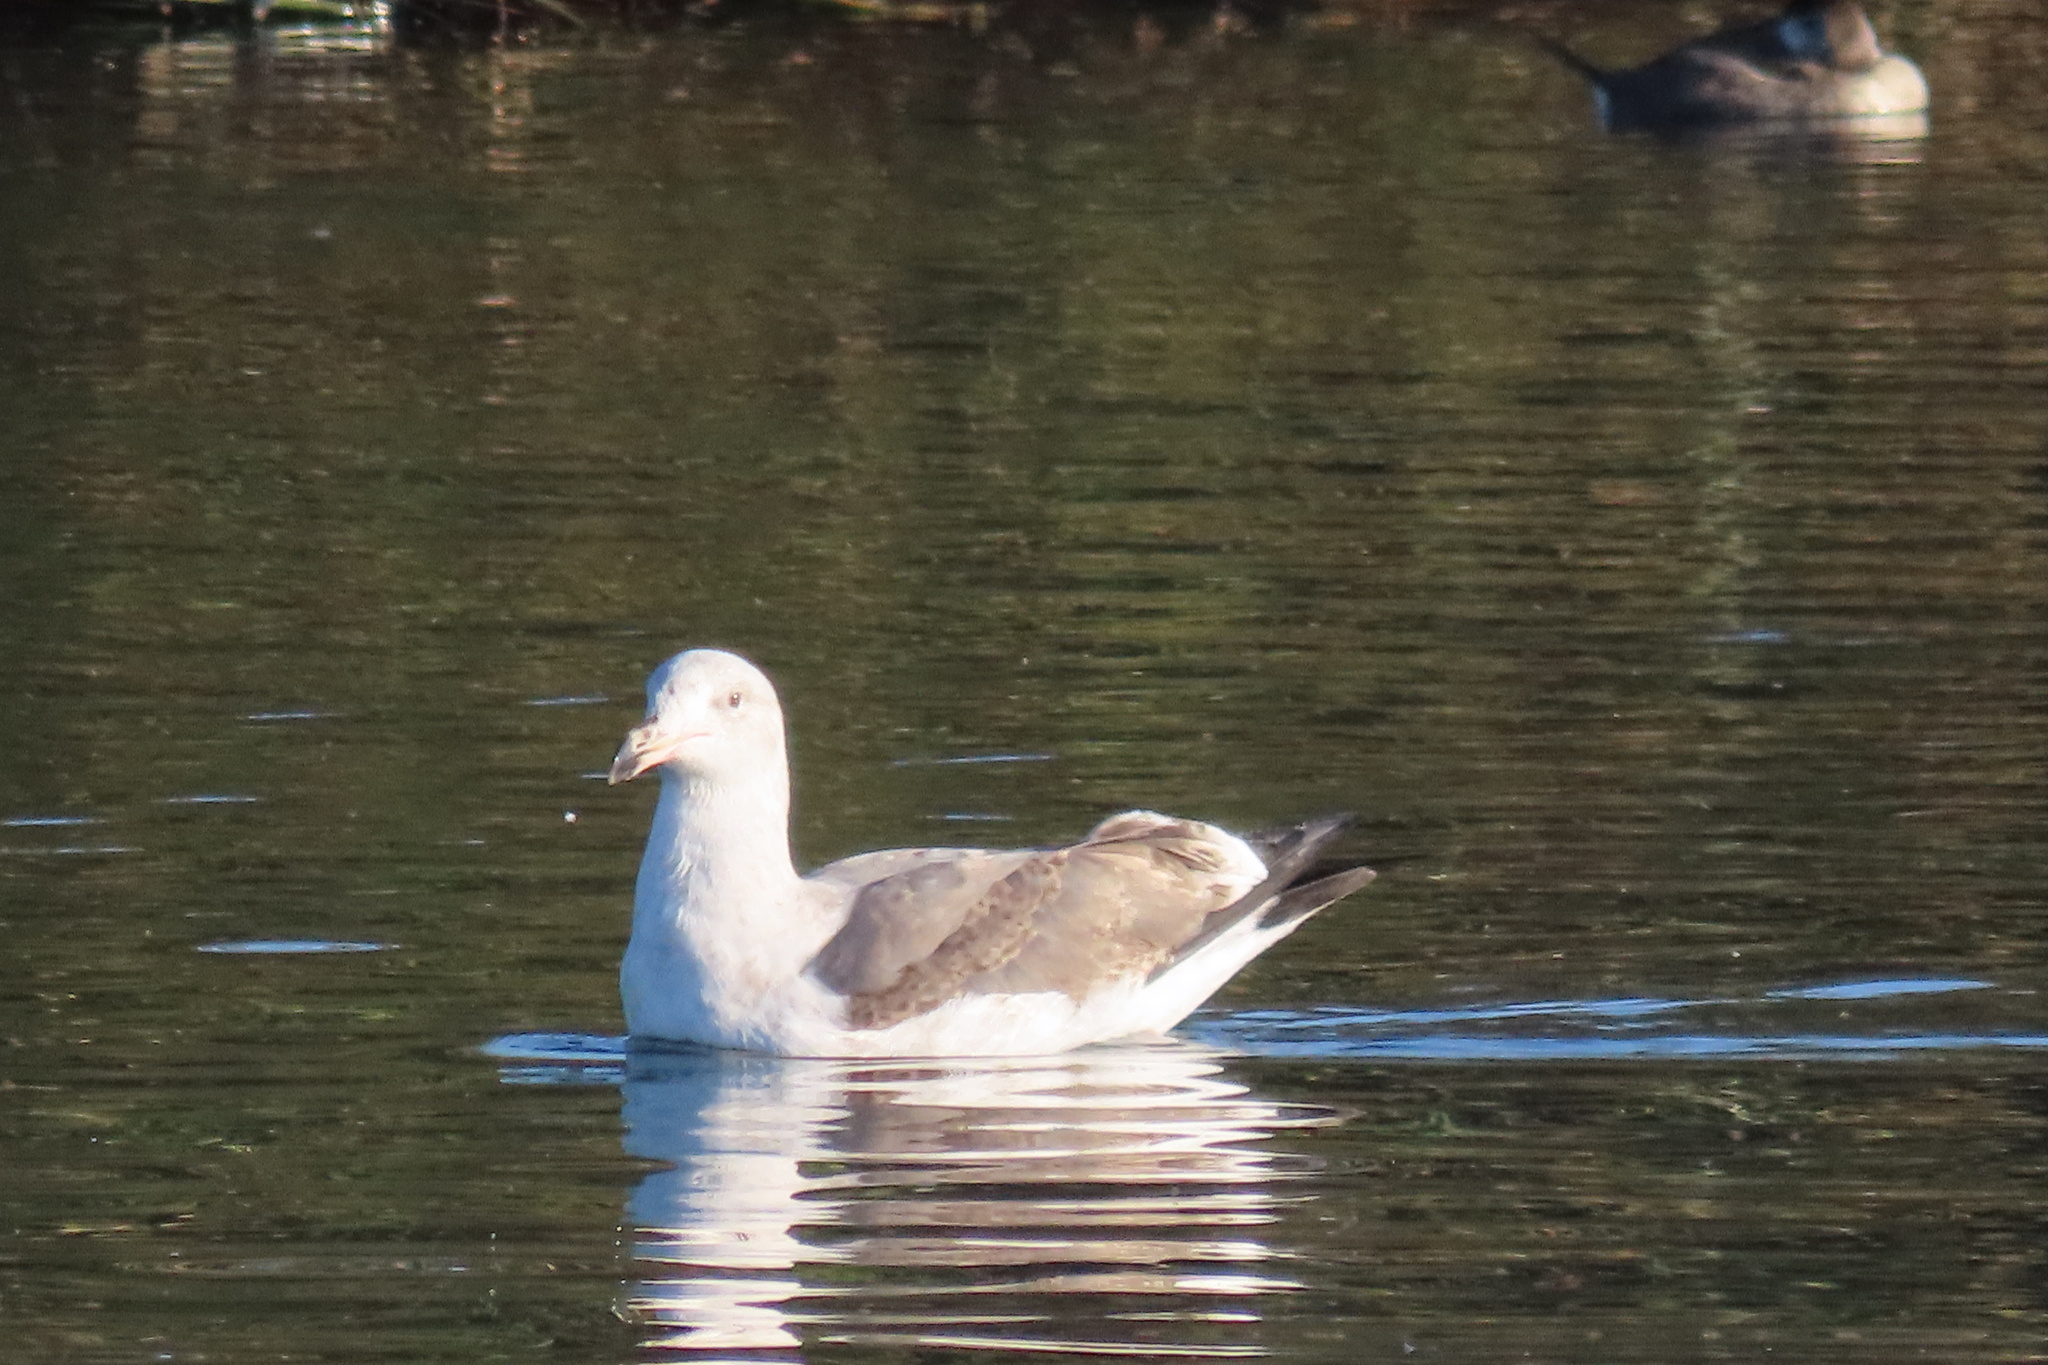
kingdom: Animalia
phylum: Chordata
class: Aves
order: Charadriiformes
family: Laridae
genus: Larus
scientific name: Larus occidentalis
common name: Western gull
